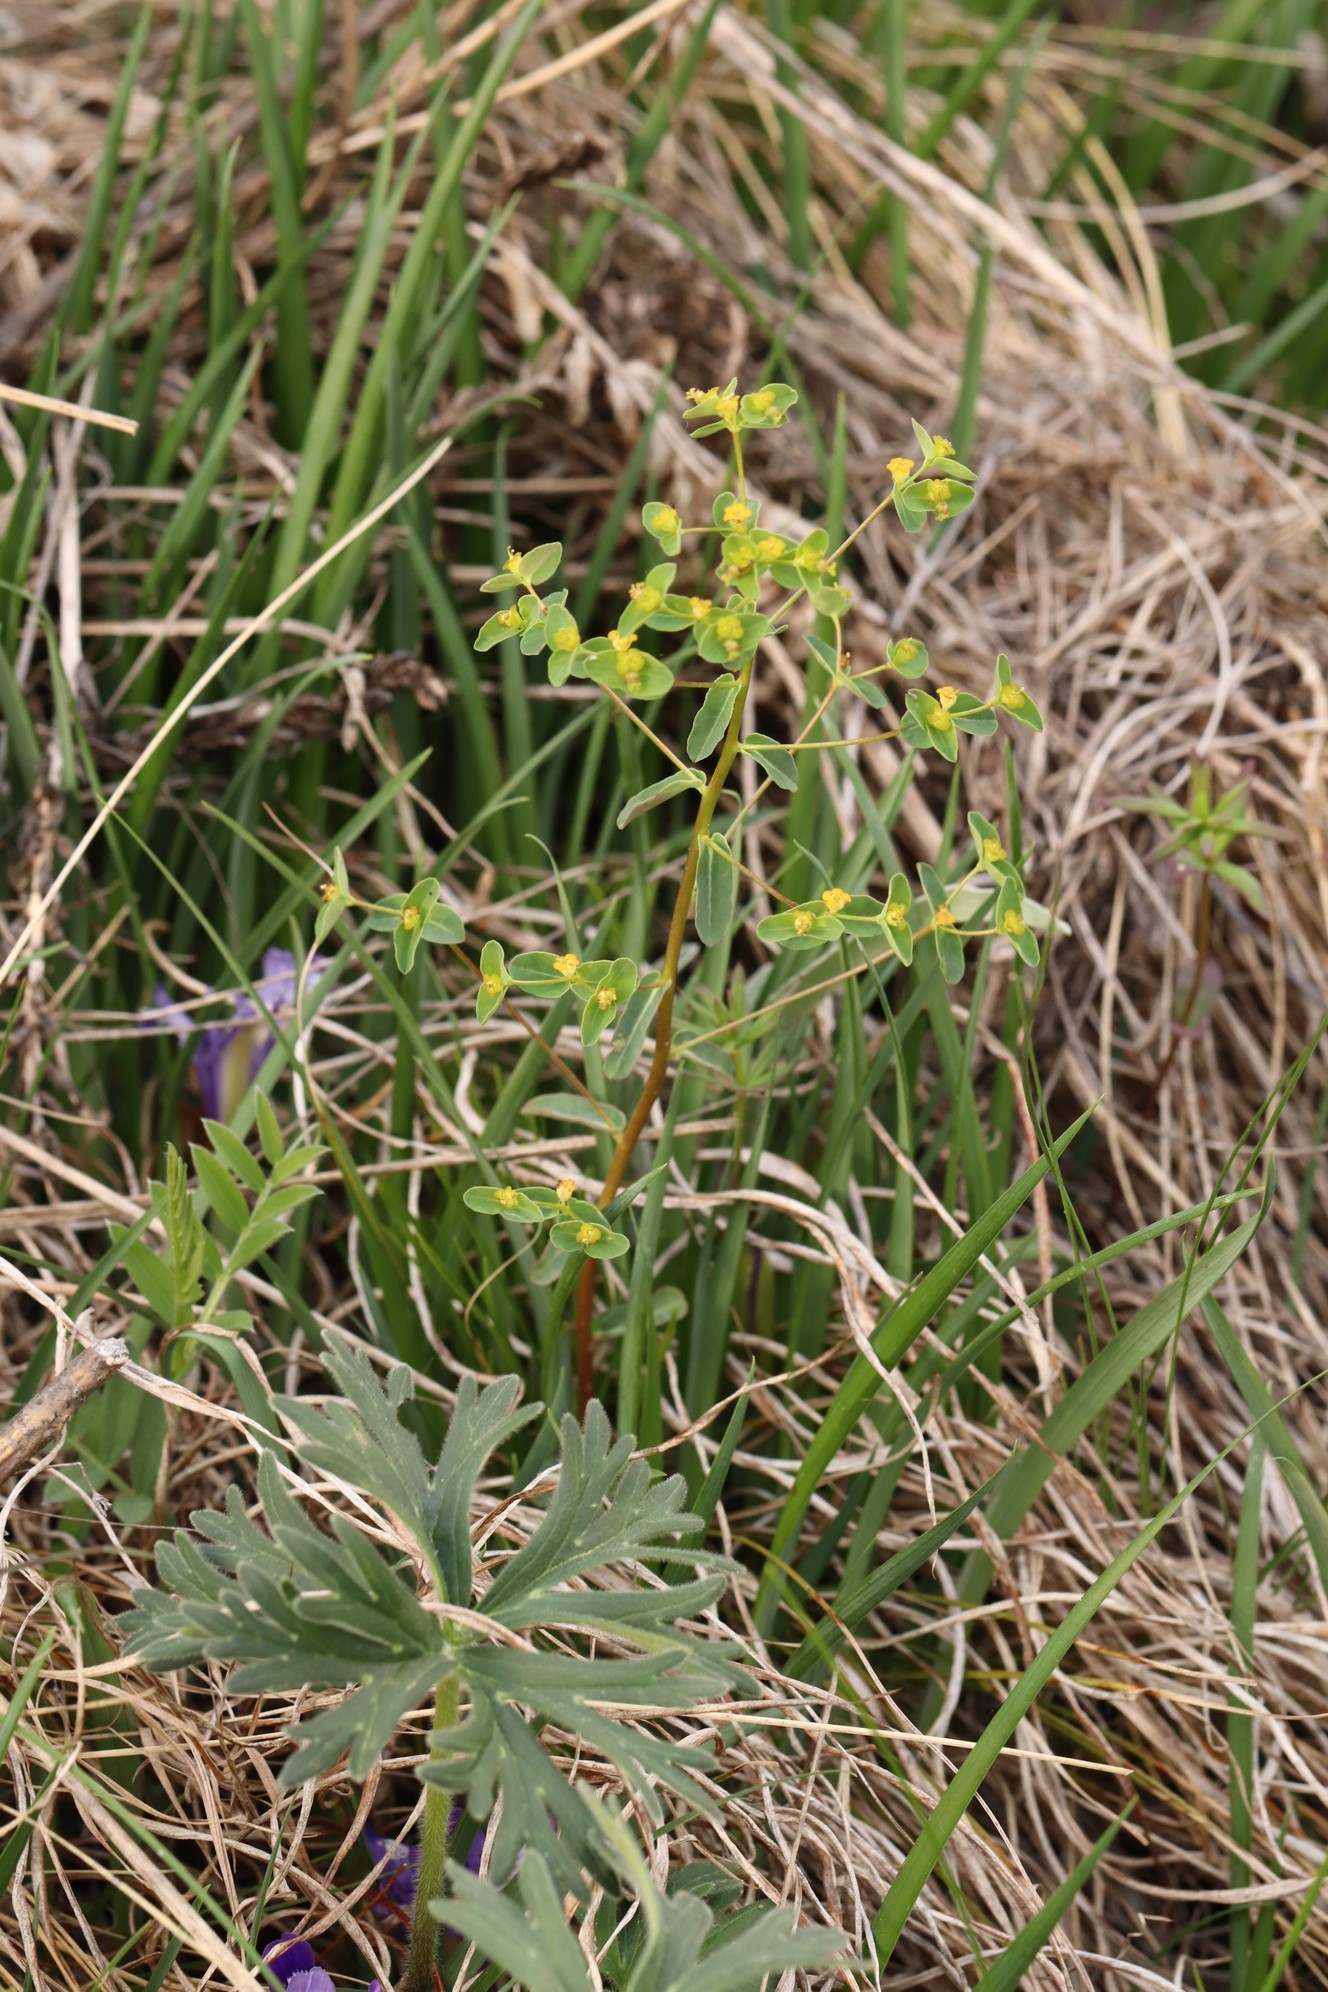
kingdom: Plantae
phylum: Tracheophyta
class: Magnoliopsida
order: Malpighiales
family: Euphorbiaceae
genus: Euphorbia
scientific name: Euphorbia alpina
